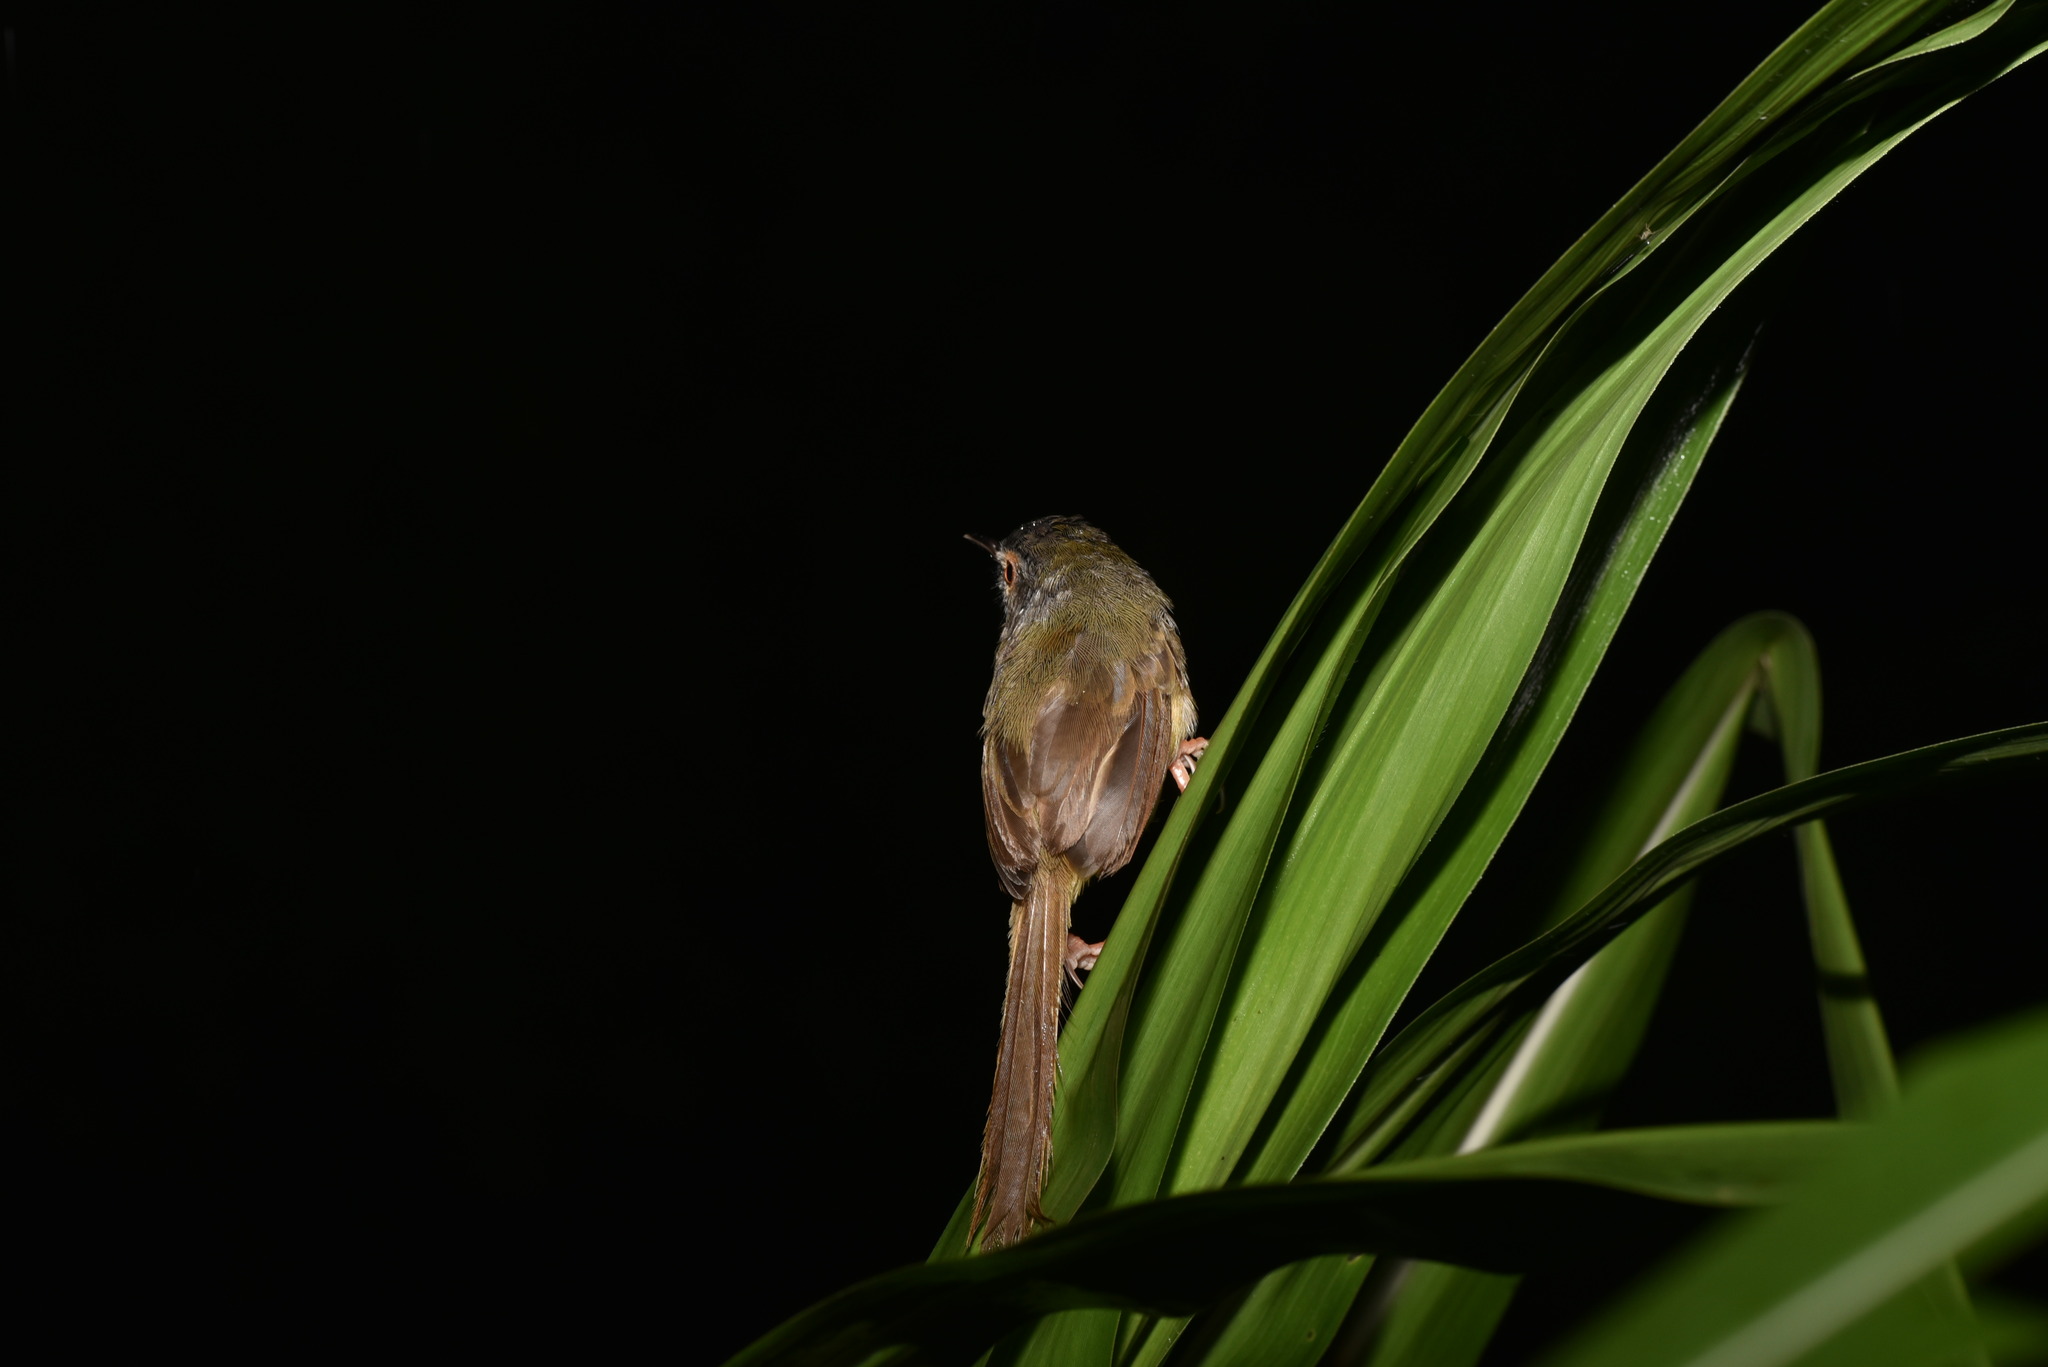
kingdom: Animalia
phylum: Chordata
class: Aves
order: Passeriformes
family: Cisticolidae
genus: Prinia
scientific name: Prinia flaviventris
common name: Yellow-bellied prinia
